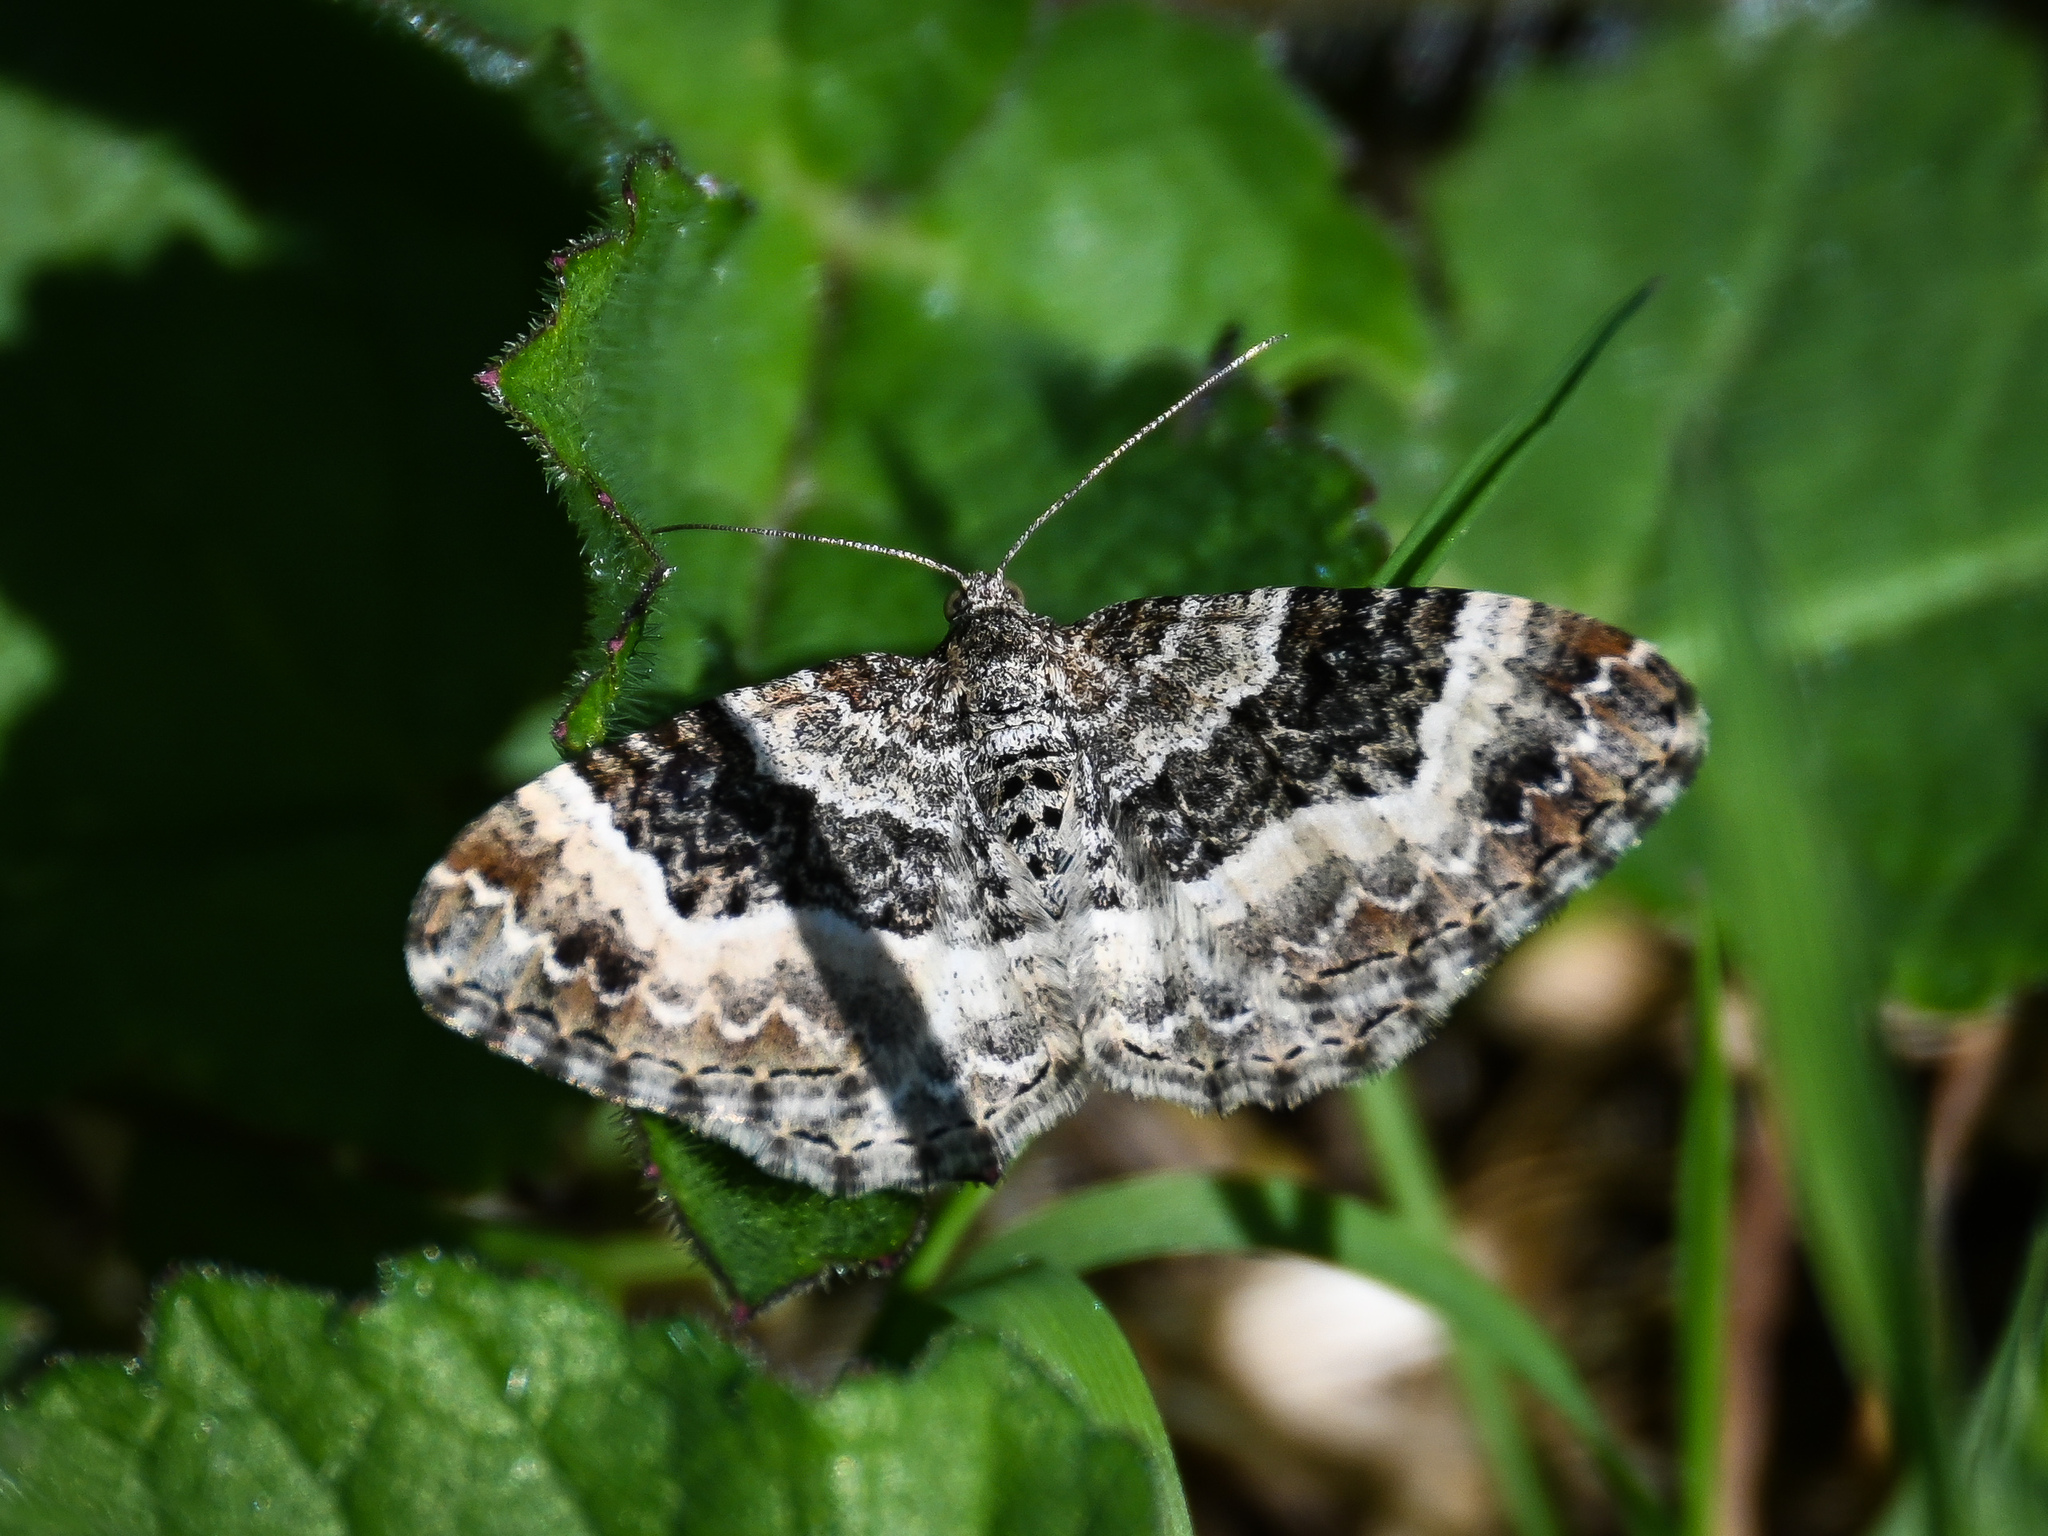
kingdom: Animalia
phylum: Arthropoda
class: Insecta
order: Lepidoptera
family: Geometridae
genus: Epirrhoe
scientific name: Epirrhoe alternata
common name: Common carpet
